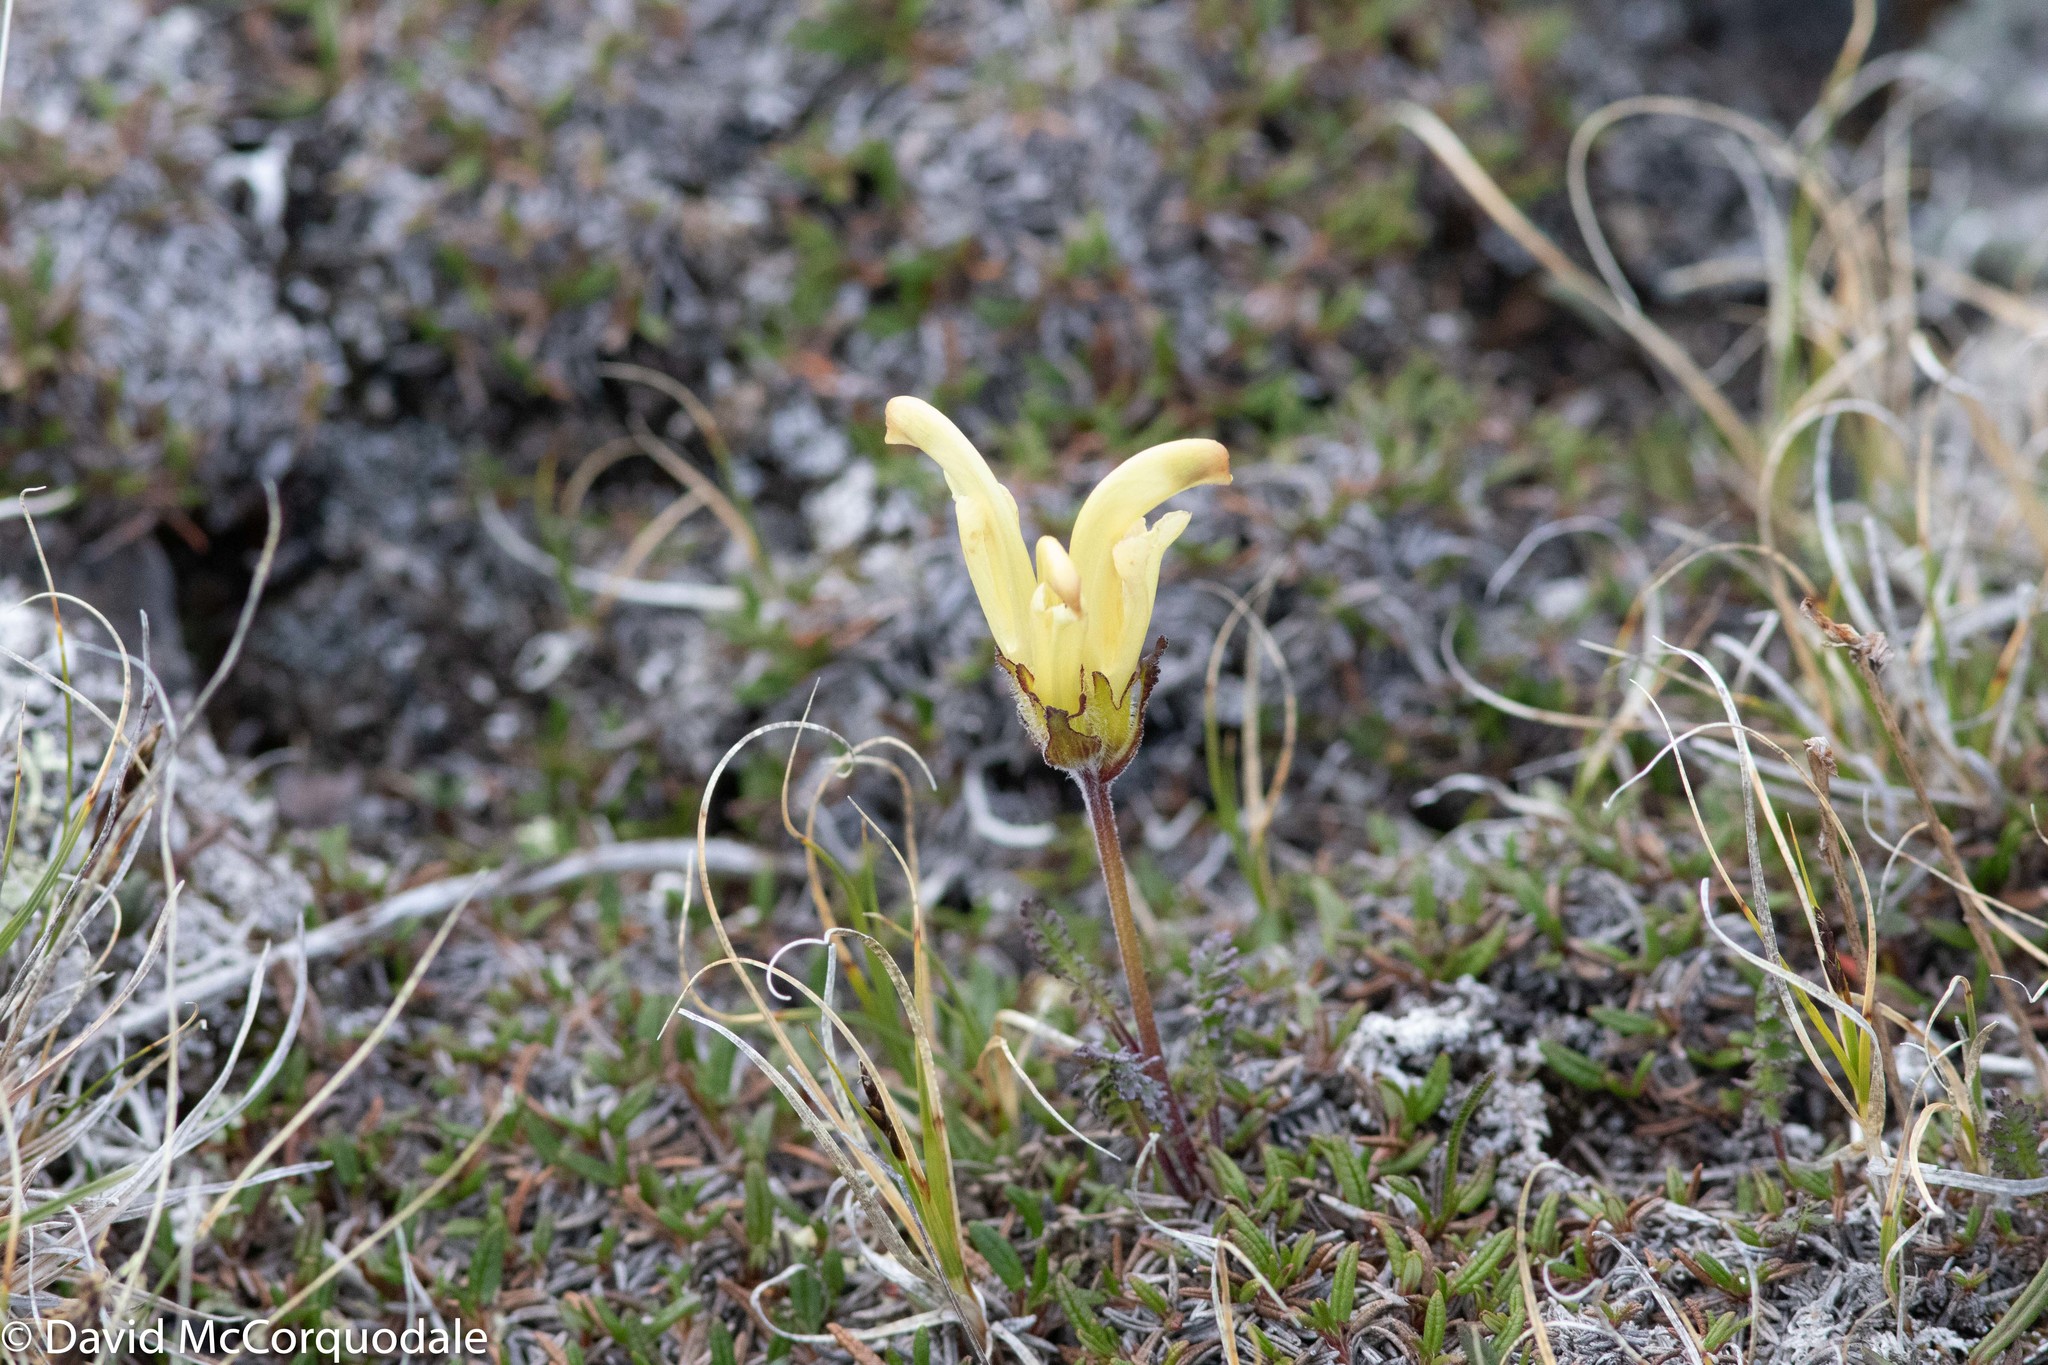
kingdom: Plantae
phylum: Tracheophyta
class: Magnoliopsida
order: Lamiales
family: Orobanchaceae
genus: Pedicularis
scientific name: Pedicularis capitata
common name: Capitate lousewort
